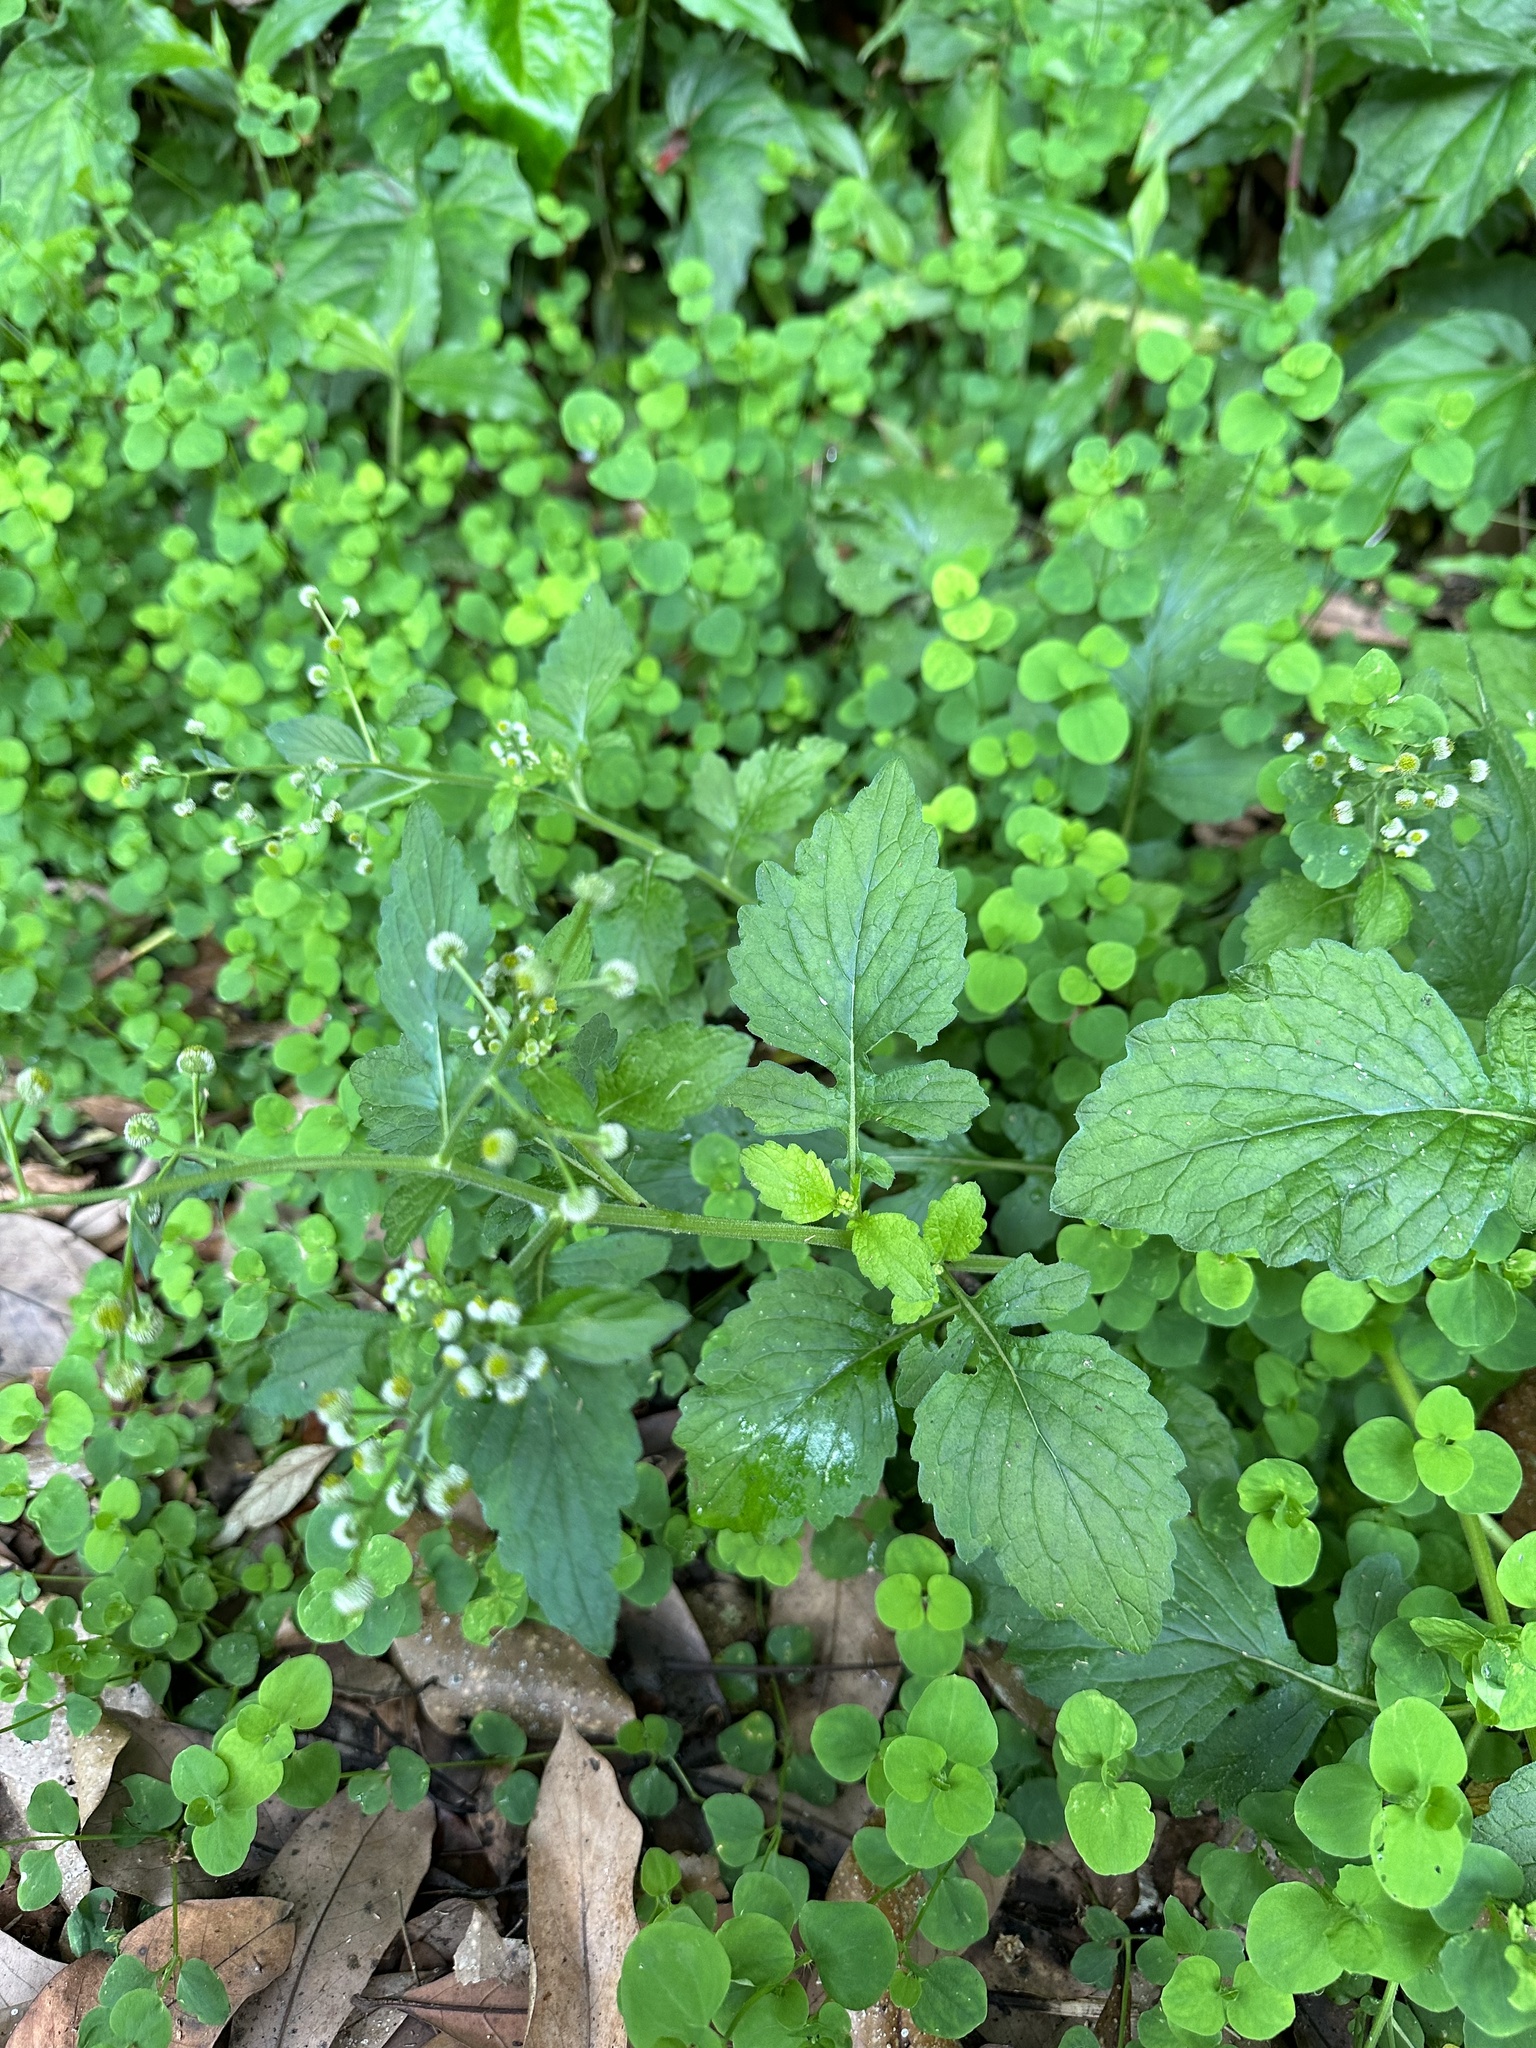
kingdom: Plantae
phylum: Tracheophyta
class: Magnoliopsida
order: Asterales
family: Asteraceae
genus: Dichrocephala
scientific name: Dichrocephala integrifolia
